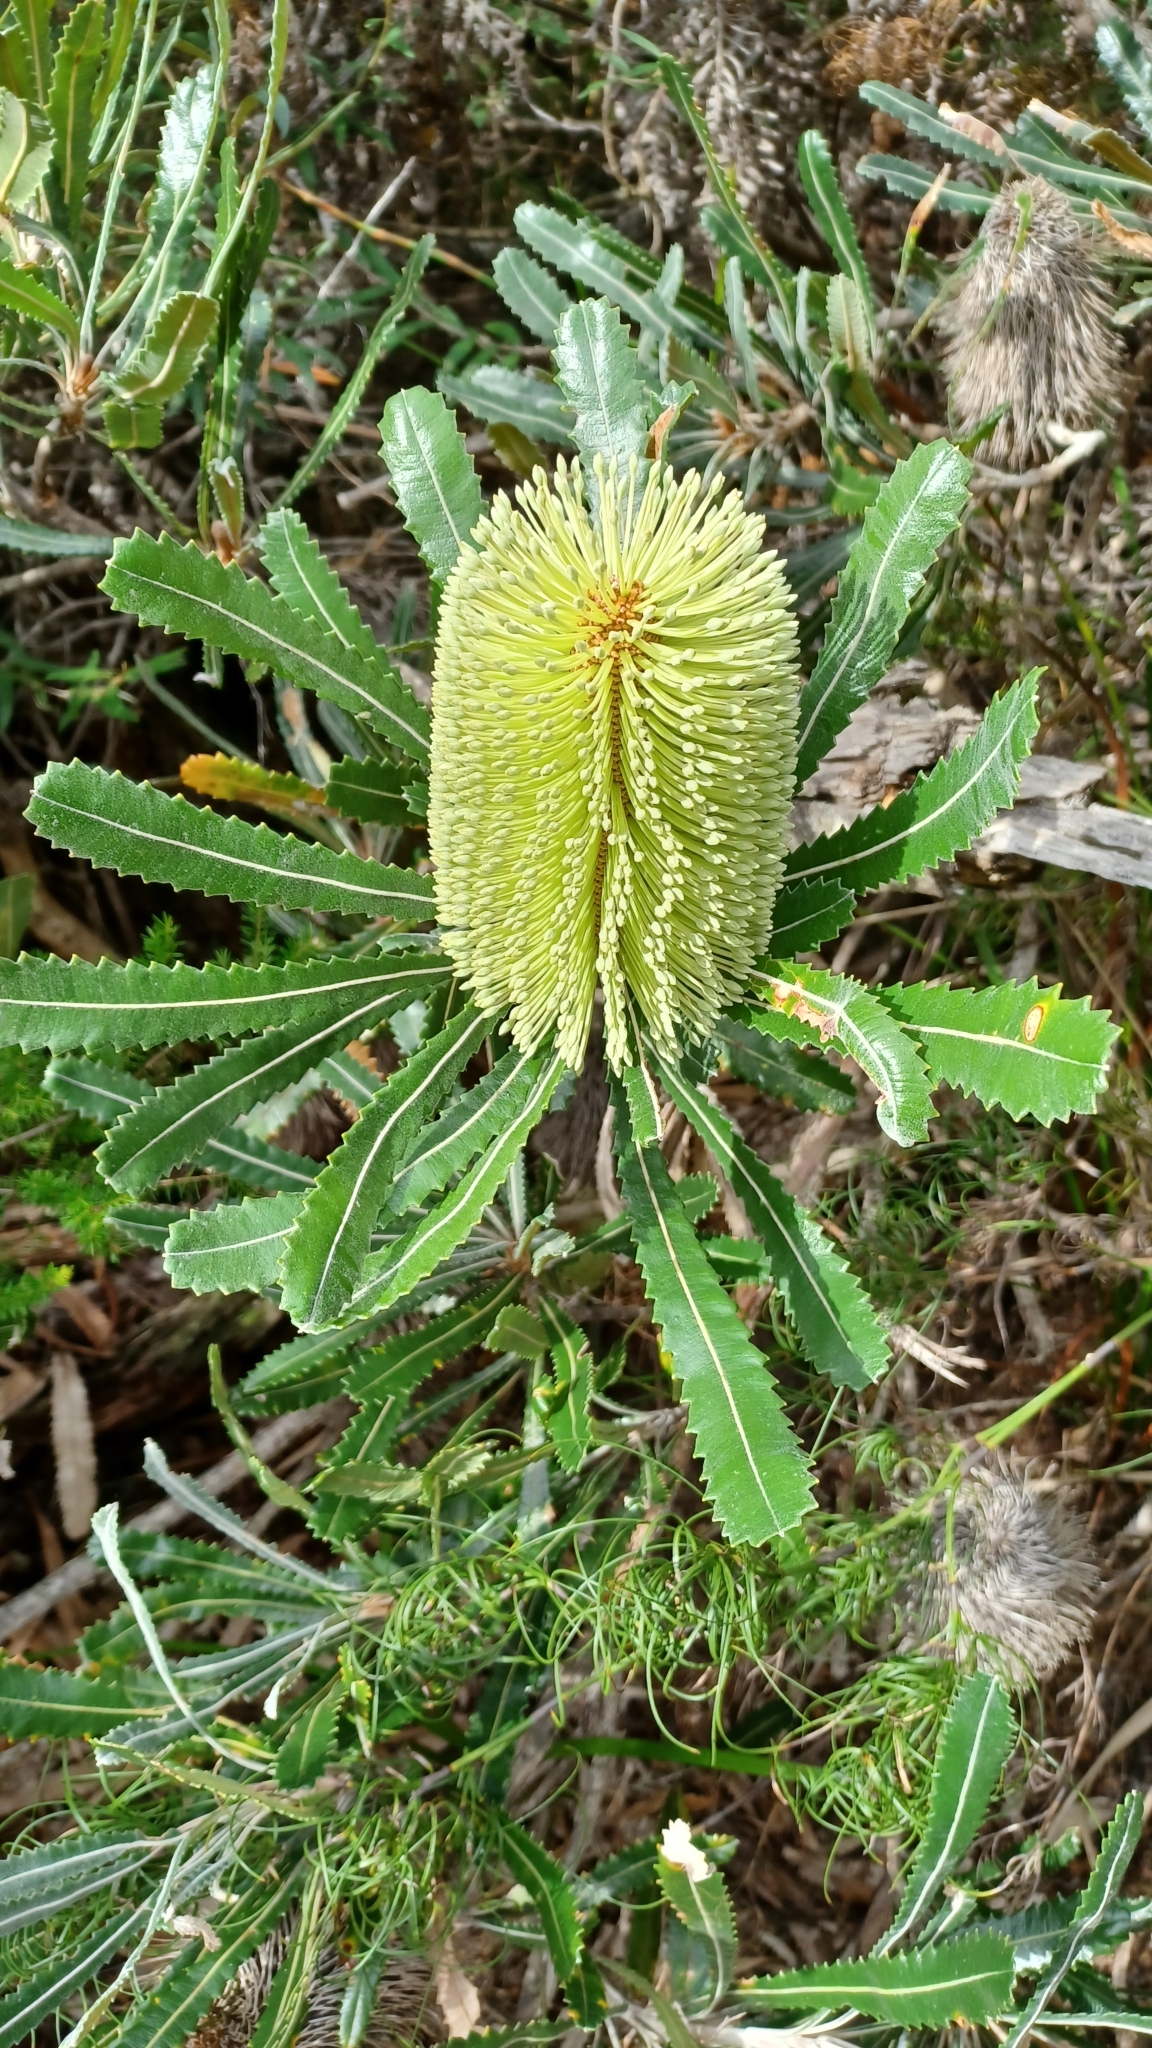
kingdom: Plantae
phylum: Tracheophyta
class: Magnoliopsida
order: Proteales
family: Proteaceae
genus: Banksia
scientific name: Banksia aemula
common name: Wallum banksia
